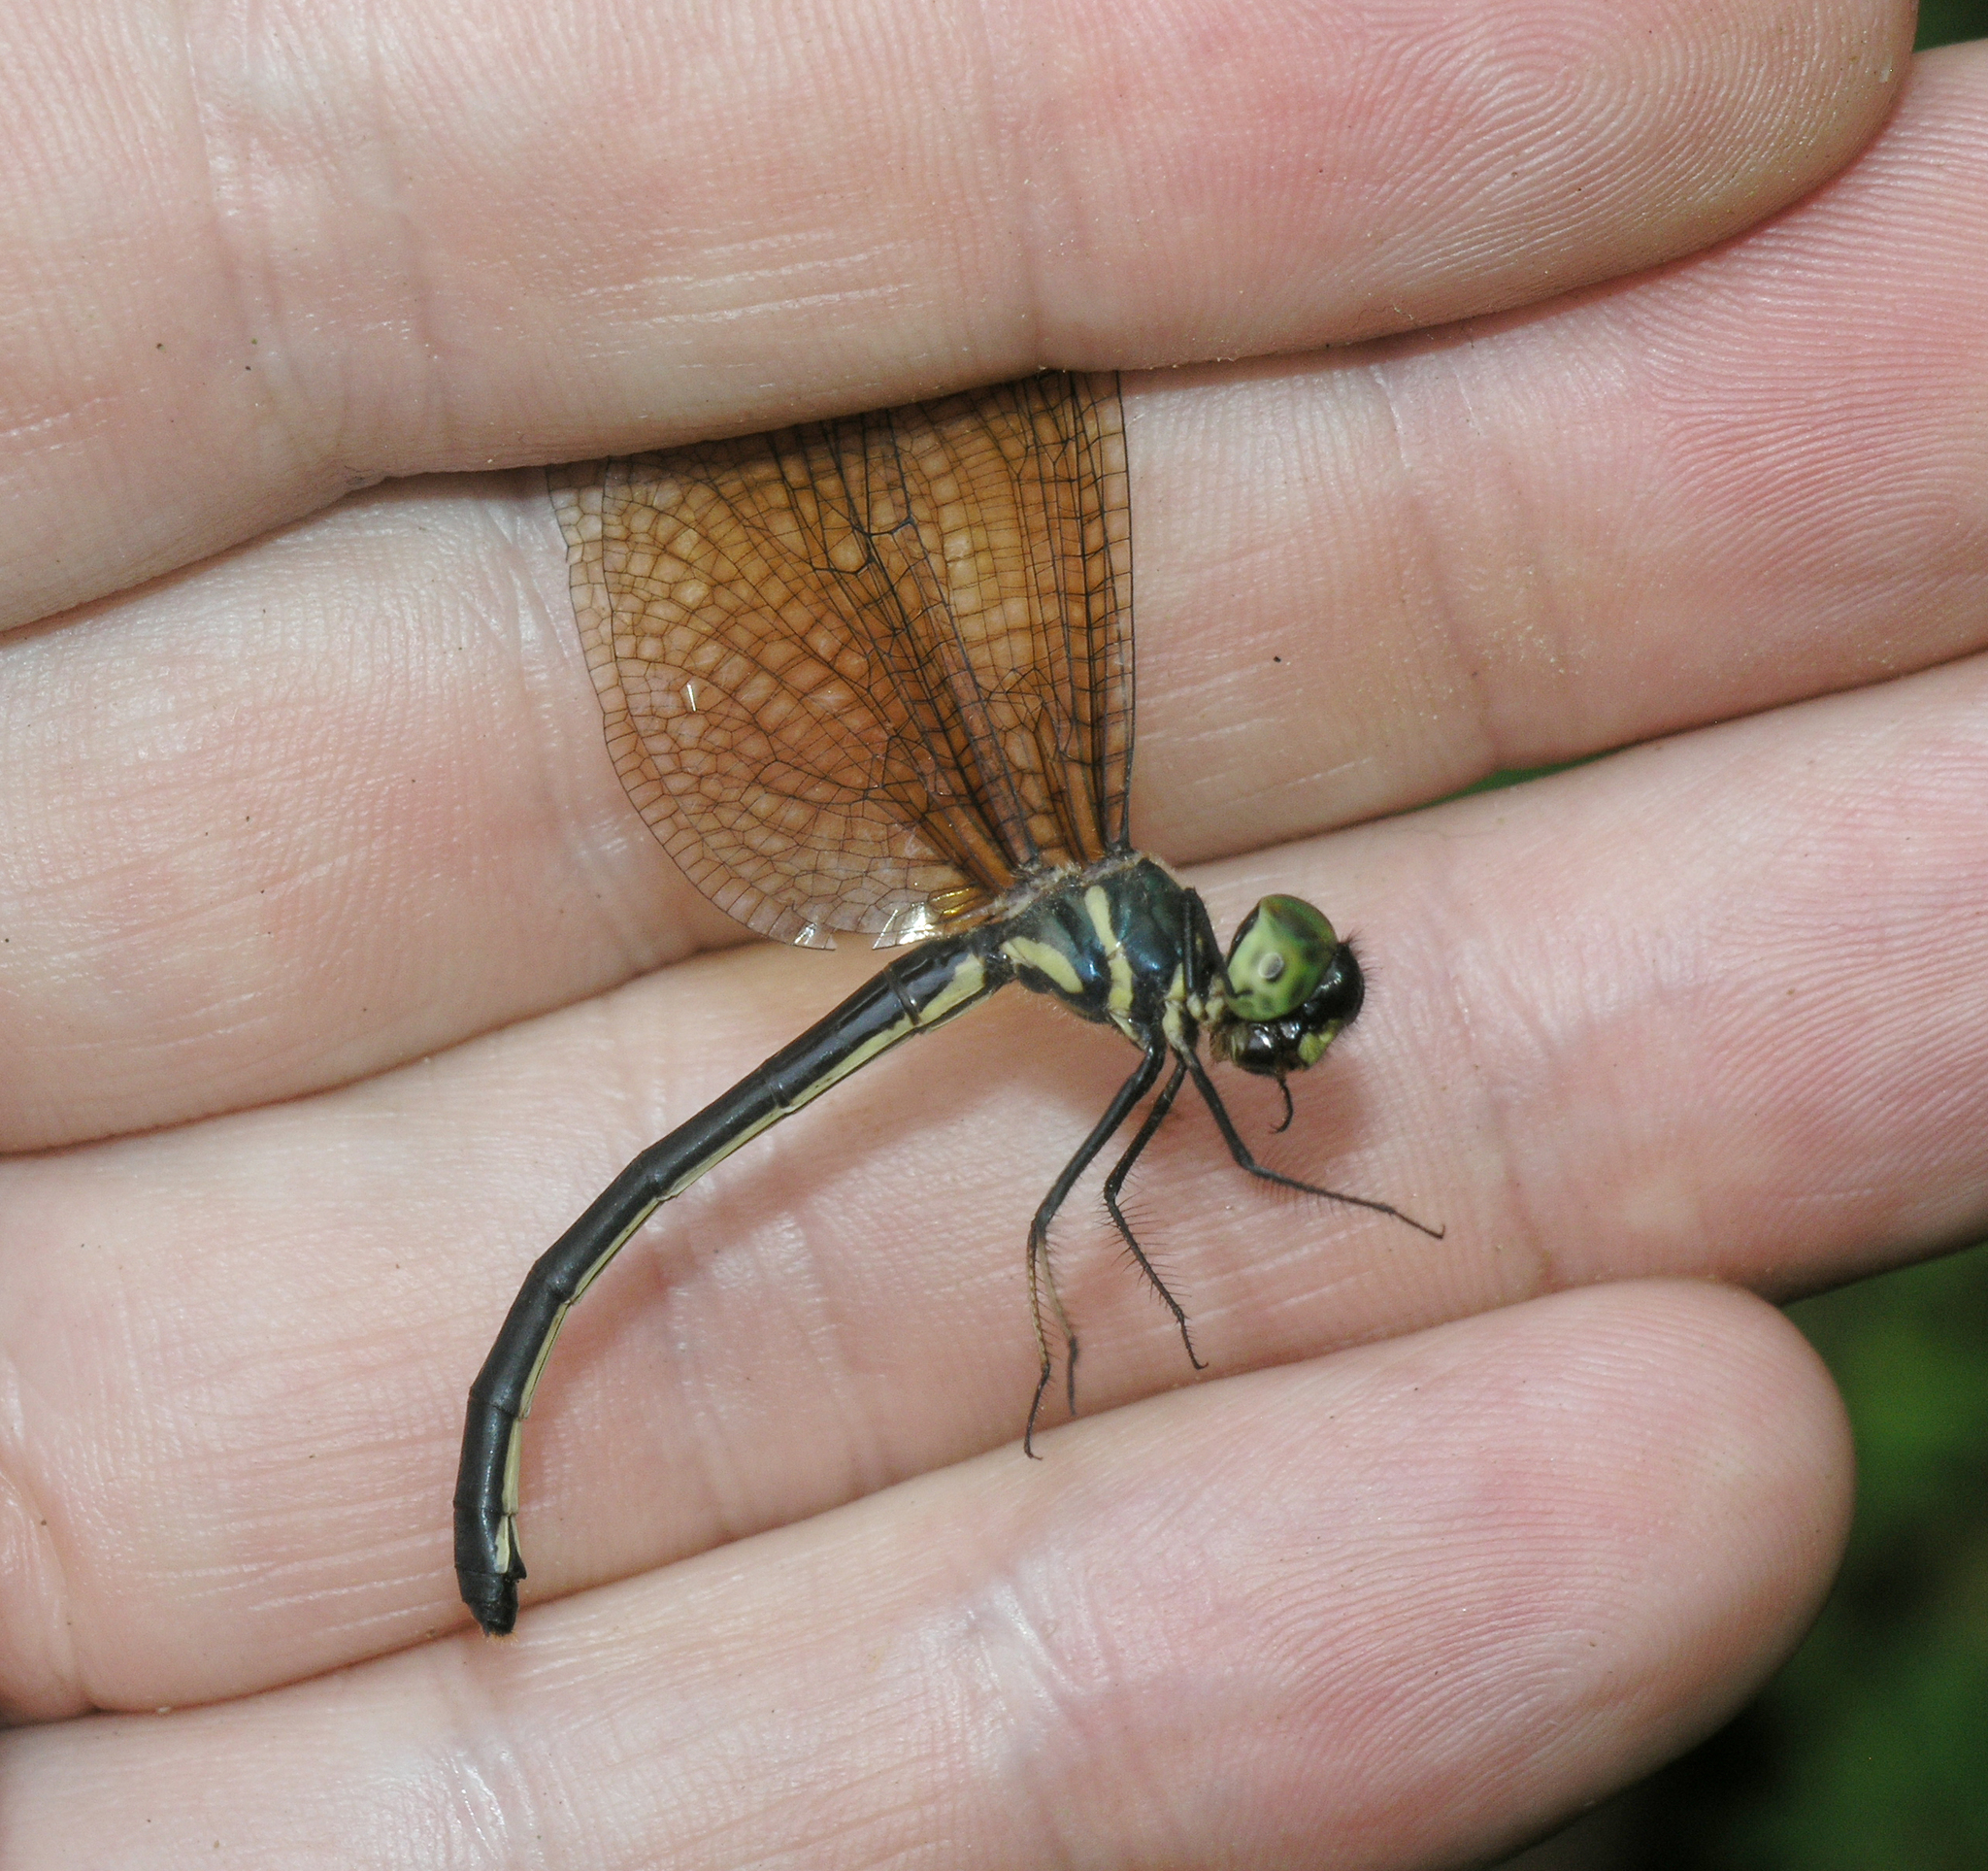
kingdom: Animalia
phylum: Arthropoda
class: Insecta
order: Odonata
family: Synthemistidae
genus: Idionyx
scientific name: Idionyx murcia
